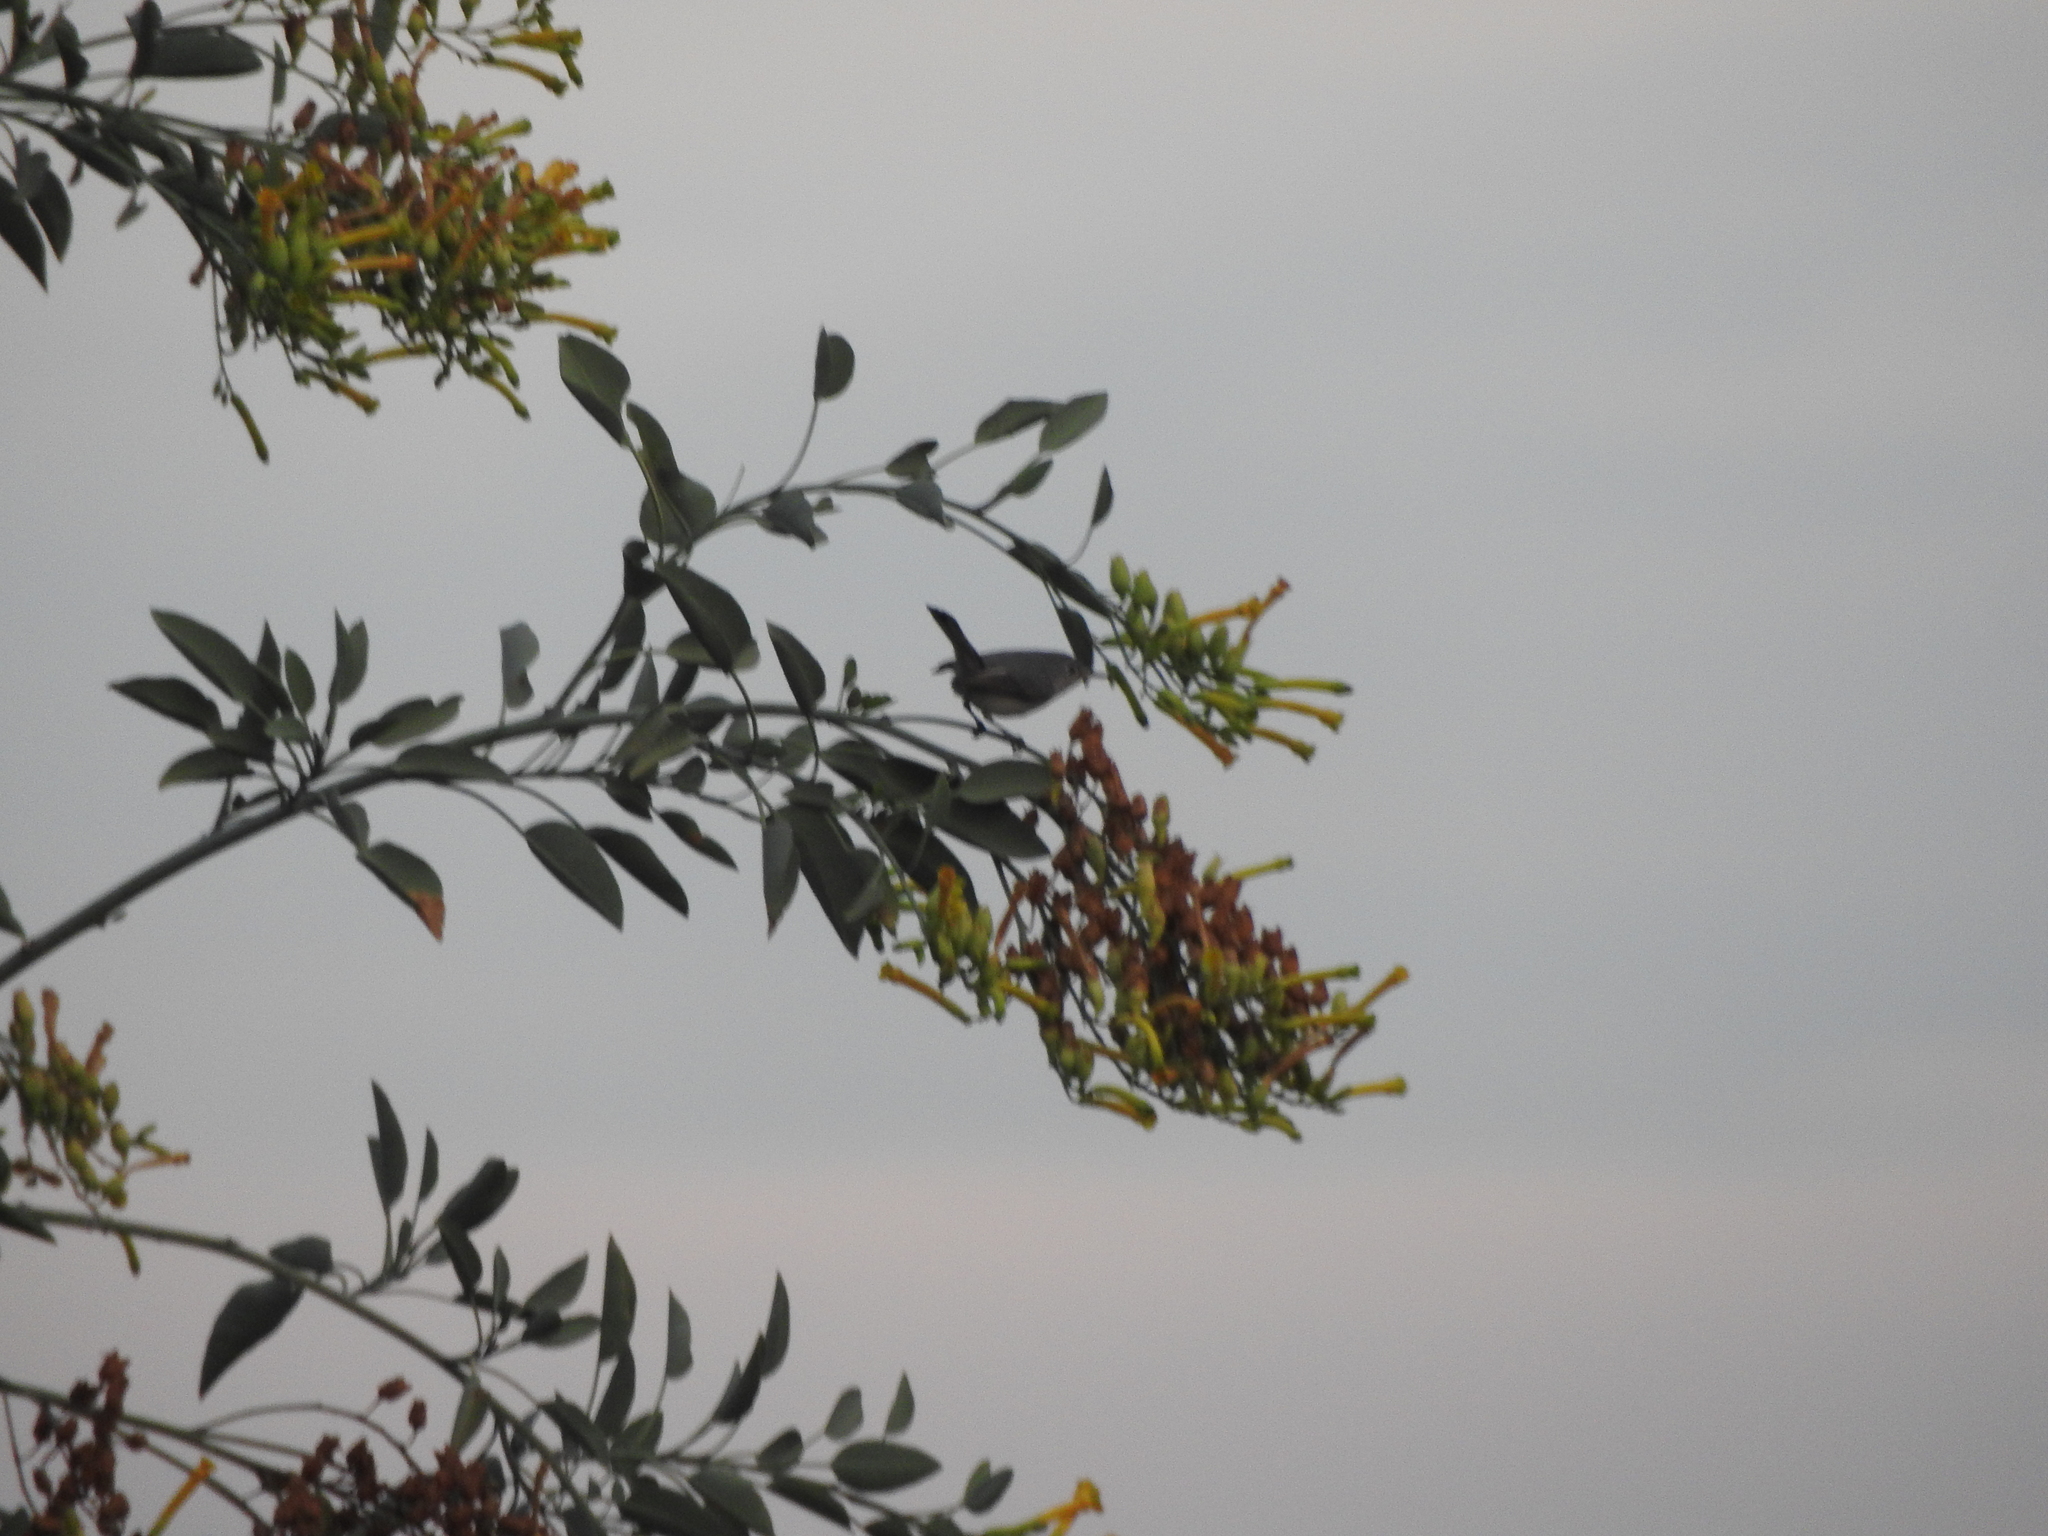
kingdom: Animalia
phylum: Chordata
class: Aves
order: Passeriformes
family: Polioptilidae
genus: Polioptila
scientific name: Polioptila caerulea
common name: Blue-gray gnatcatcher
